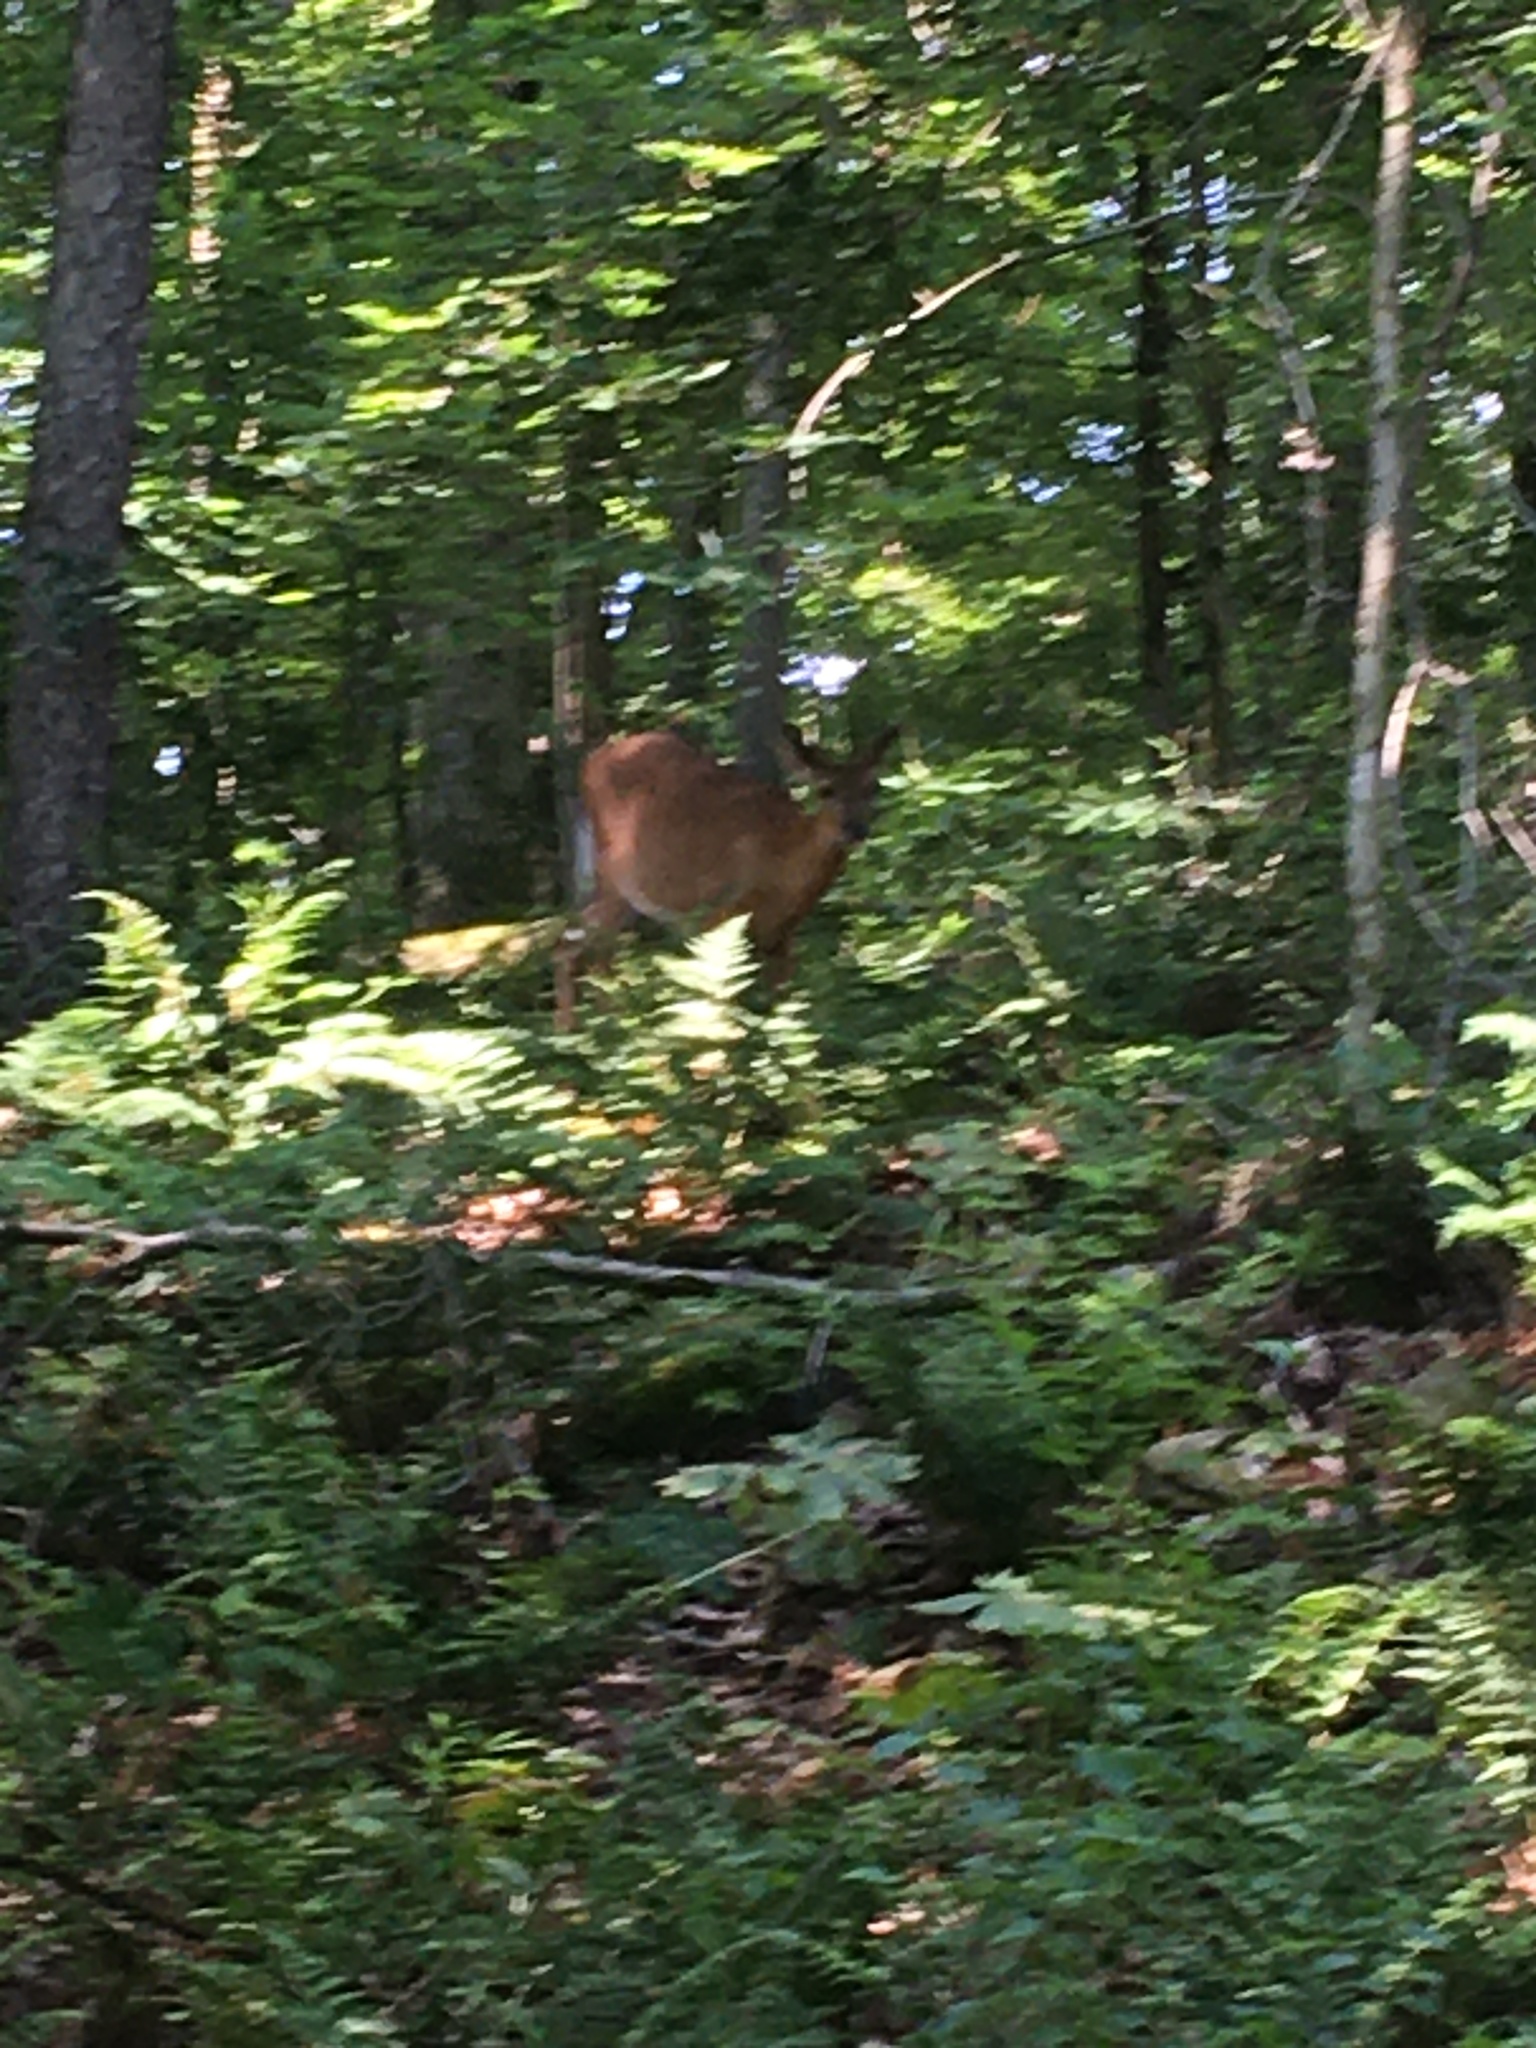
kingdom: Animalia
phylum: Chordata
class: Mammalia
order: Artiodactyla
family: Cervidae
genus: Odocoileus
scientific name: Odocoileus virginianus
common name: White-tailed deer
